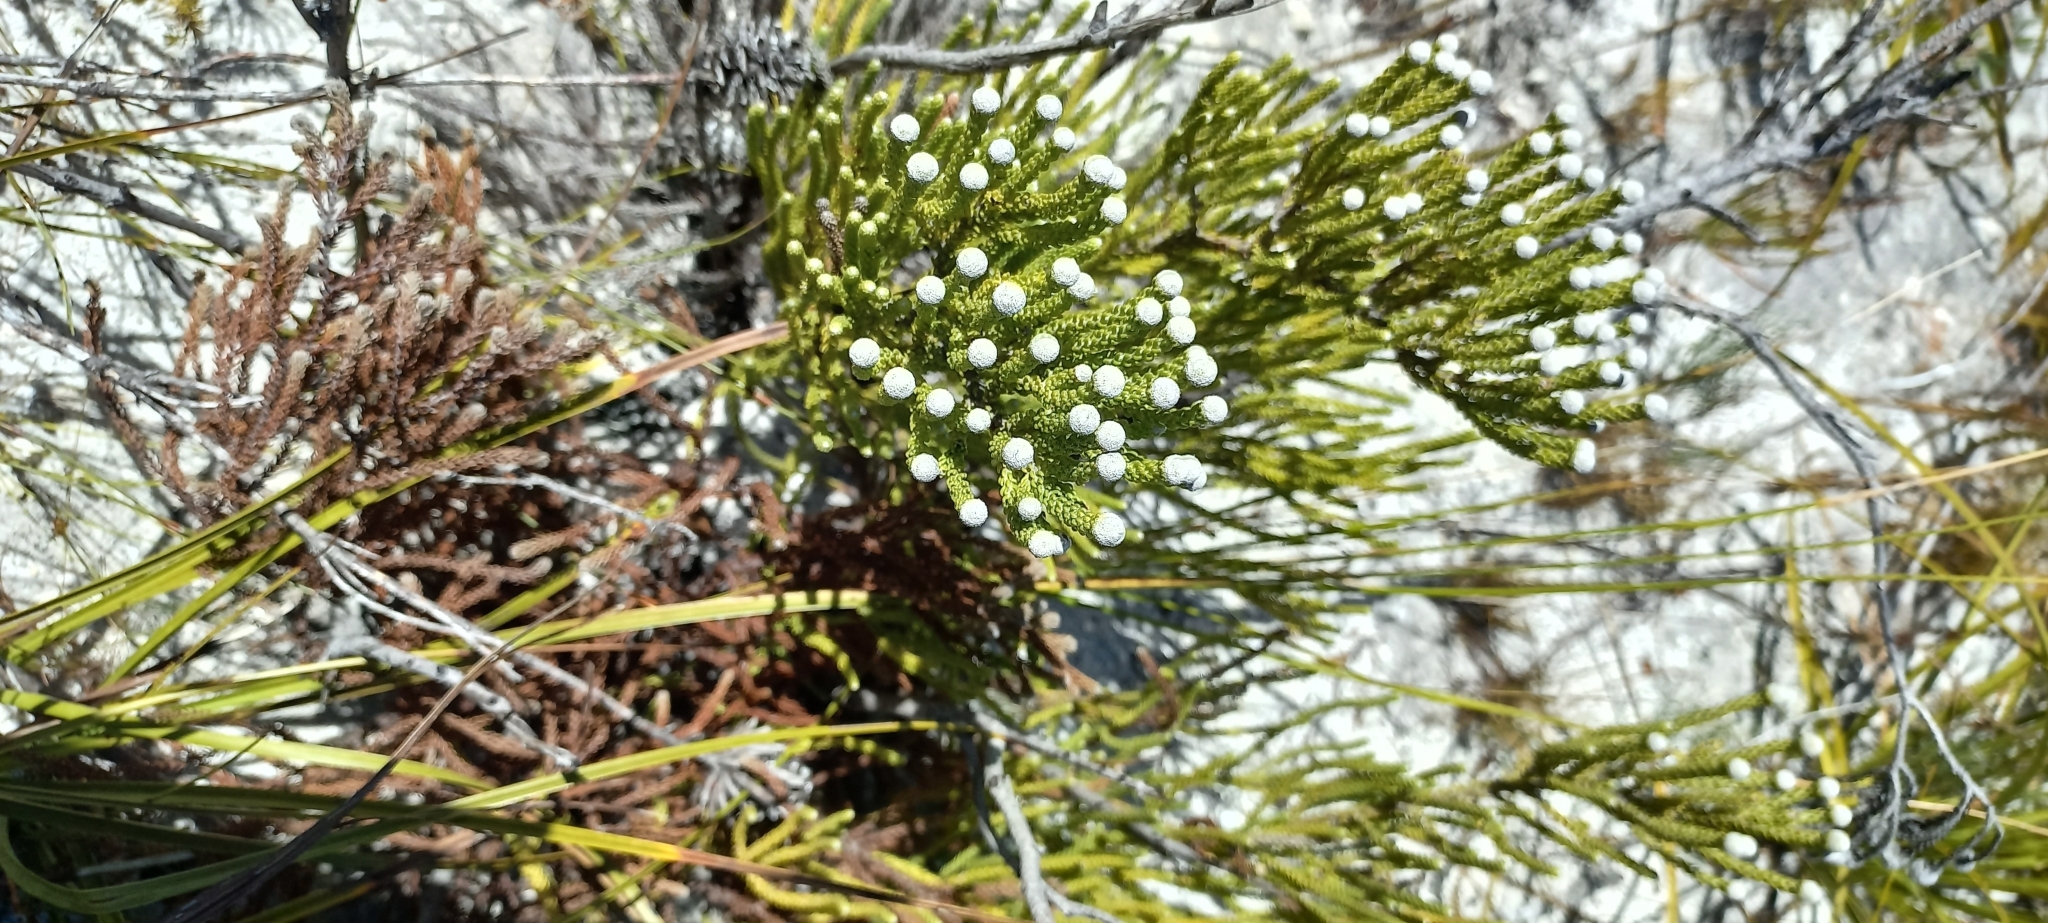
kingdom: Plantae
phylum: Tracheophyta
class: Magnoliopsida
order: Bruniales
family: Bruniaceae
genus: Brunia
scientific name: Brunia noduliflora
